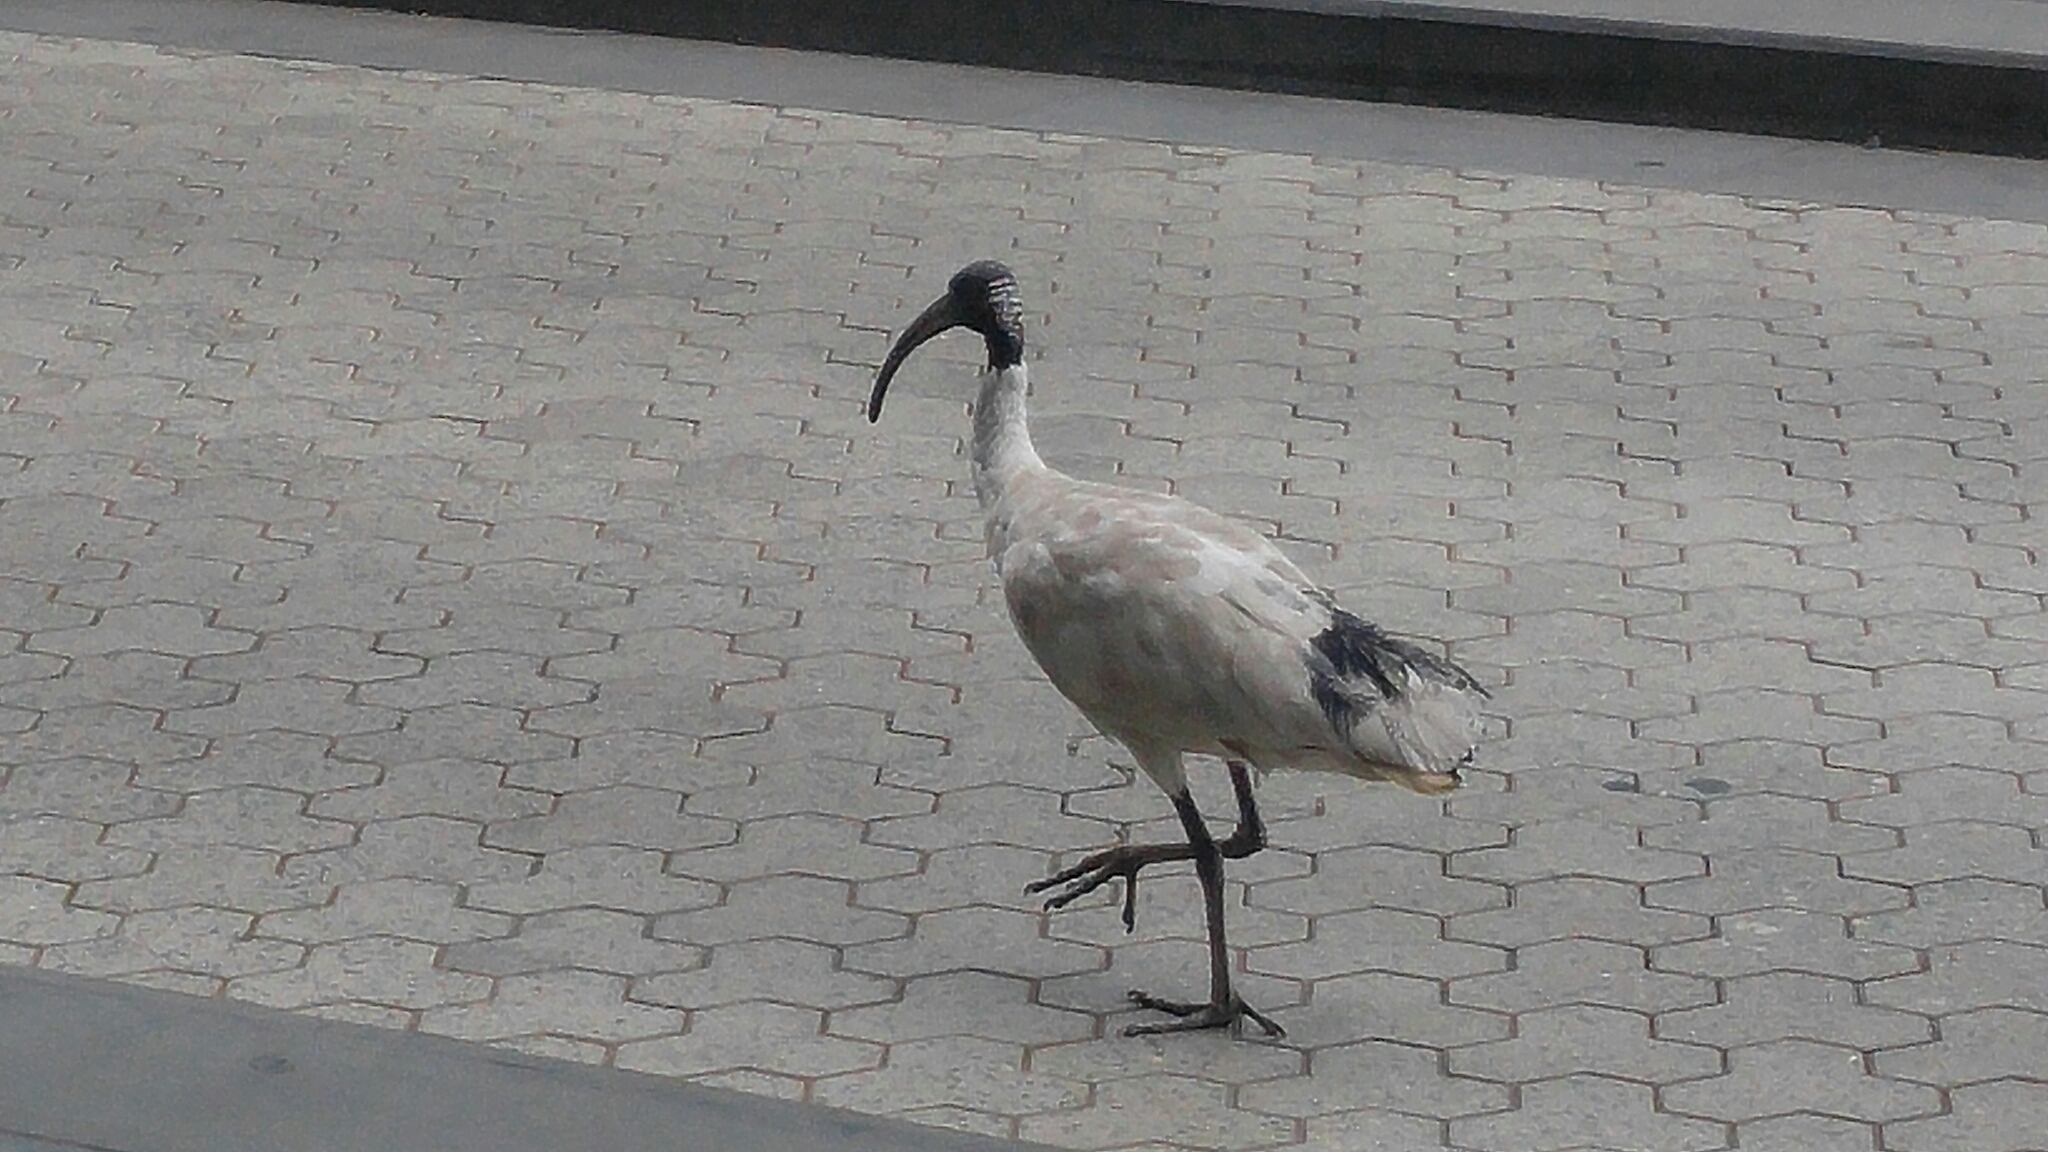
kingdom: Animalia
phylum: Chordata
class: Aves
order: Pelecaniformes
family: Threskiornithidae
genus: Threskiornis
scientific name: Threskiornis molucca
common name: Australian white ibis
